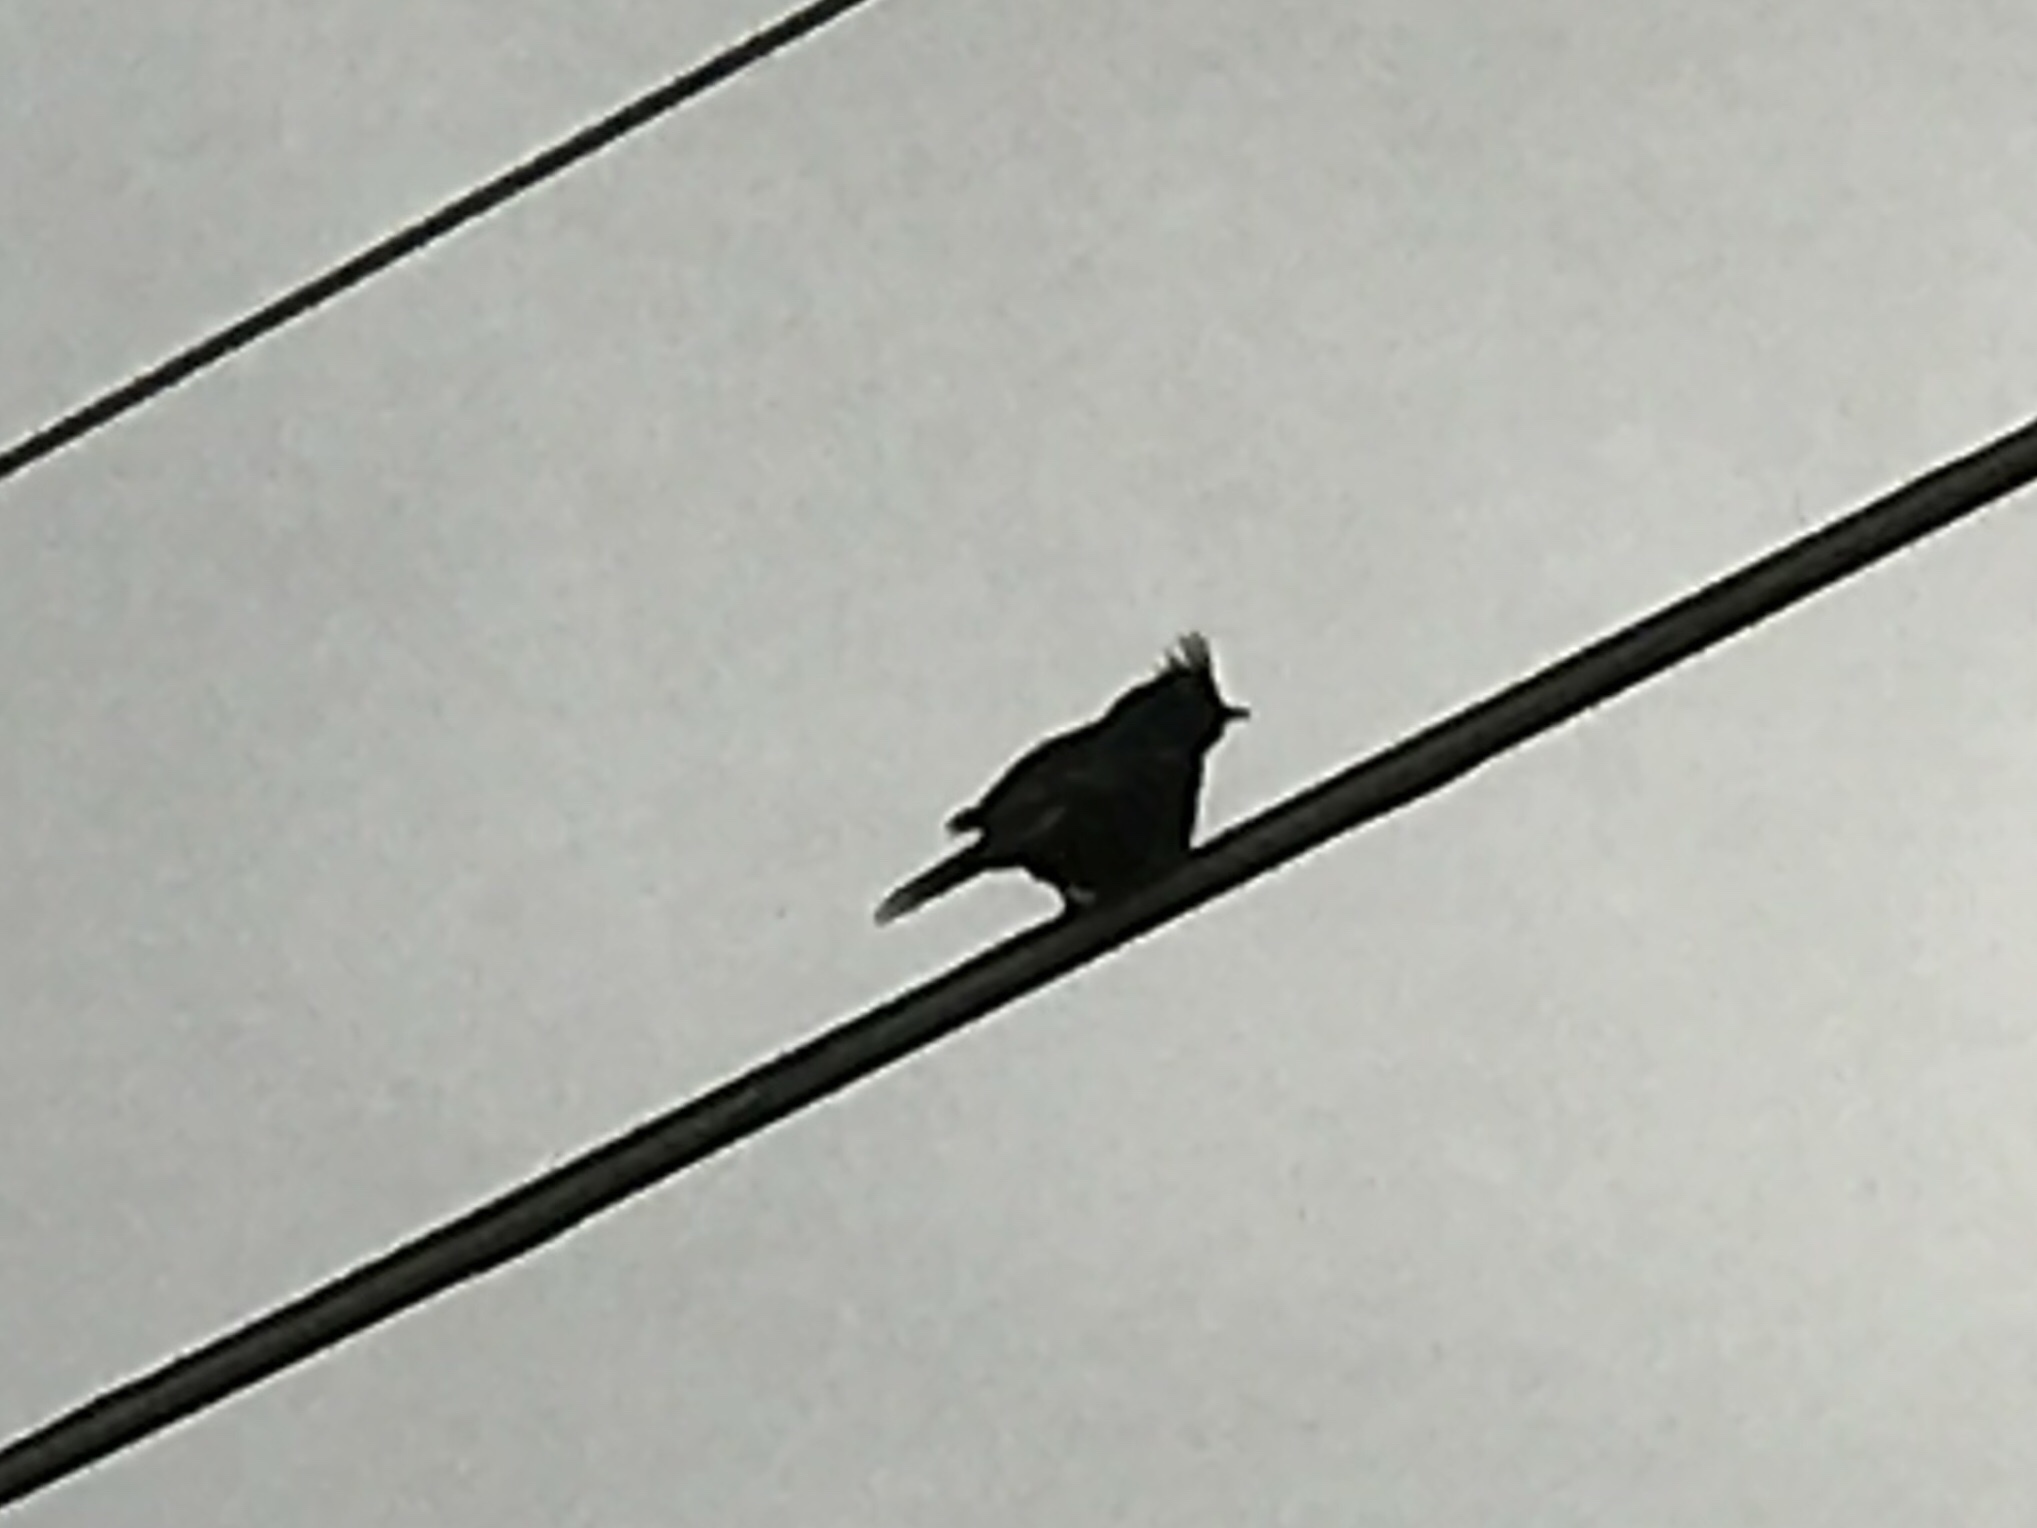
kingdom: Animalia
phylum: Chordata
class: Aves
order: Passeriformes
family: Ptilogonatidae
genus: Phainopepla
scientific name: Phainopepla nitens
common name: Phainopepla
